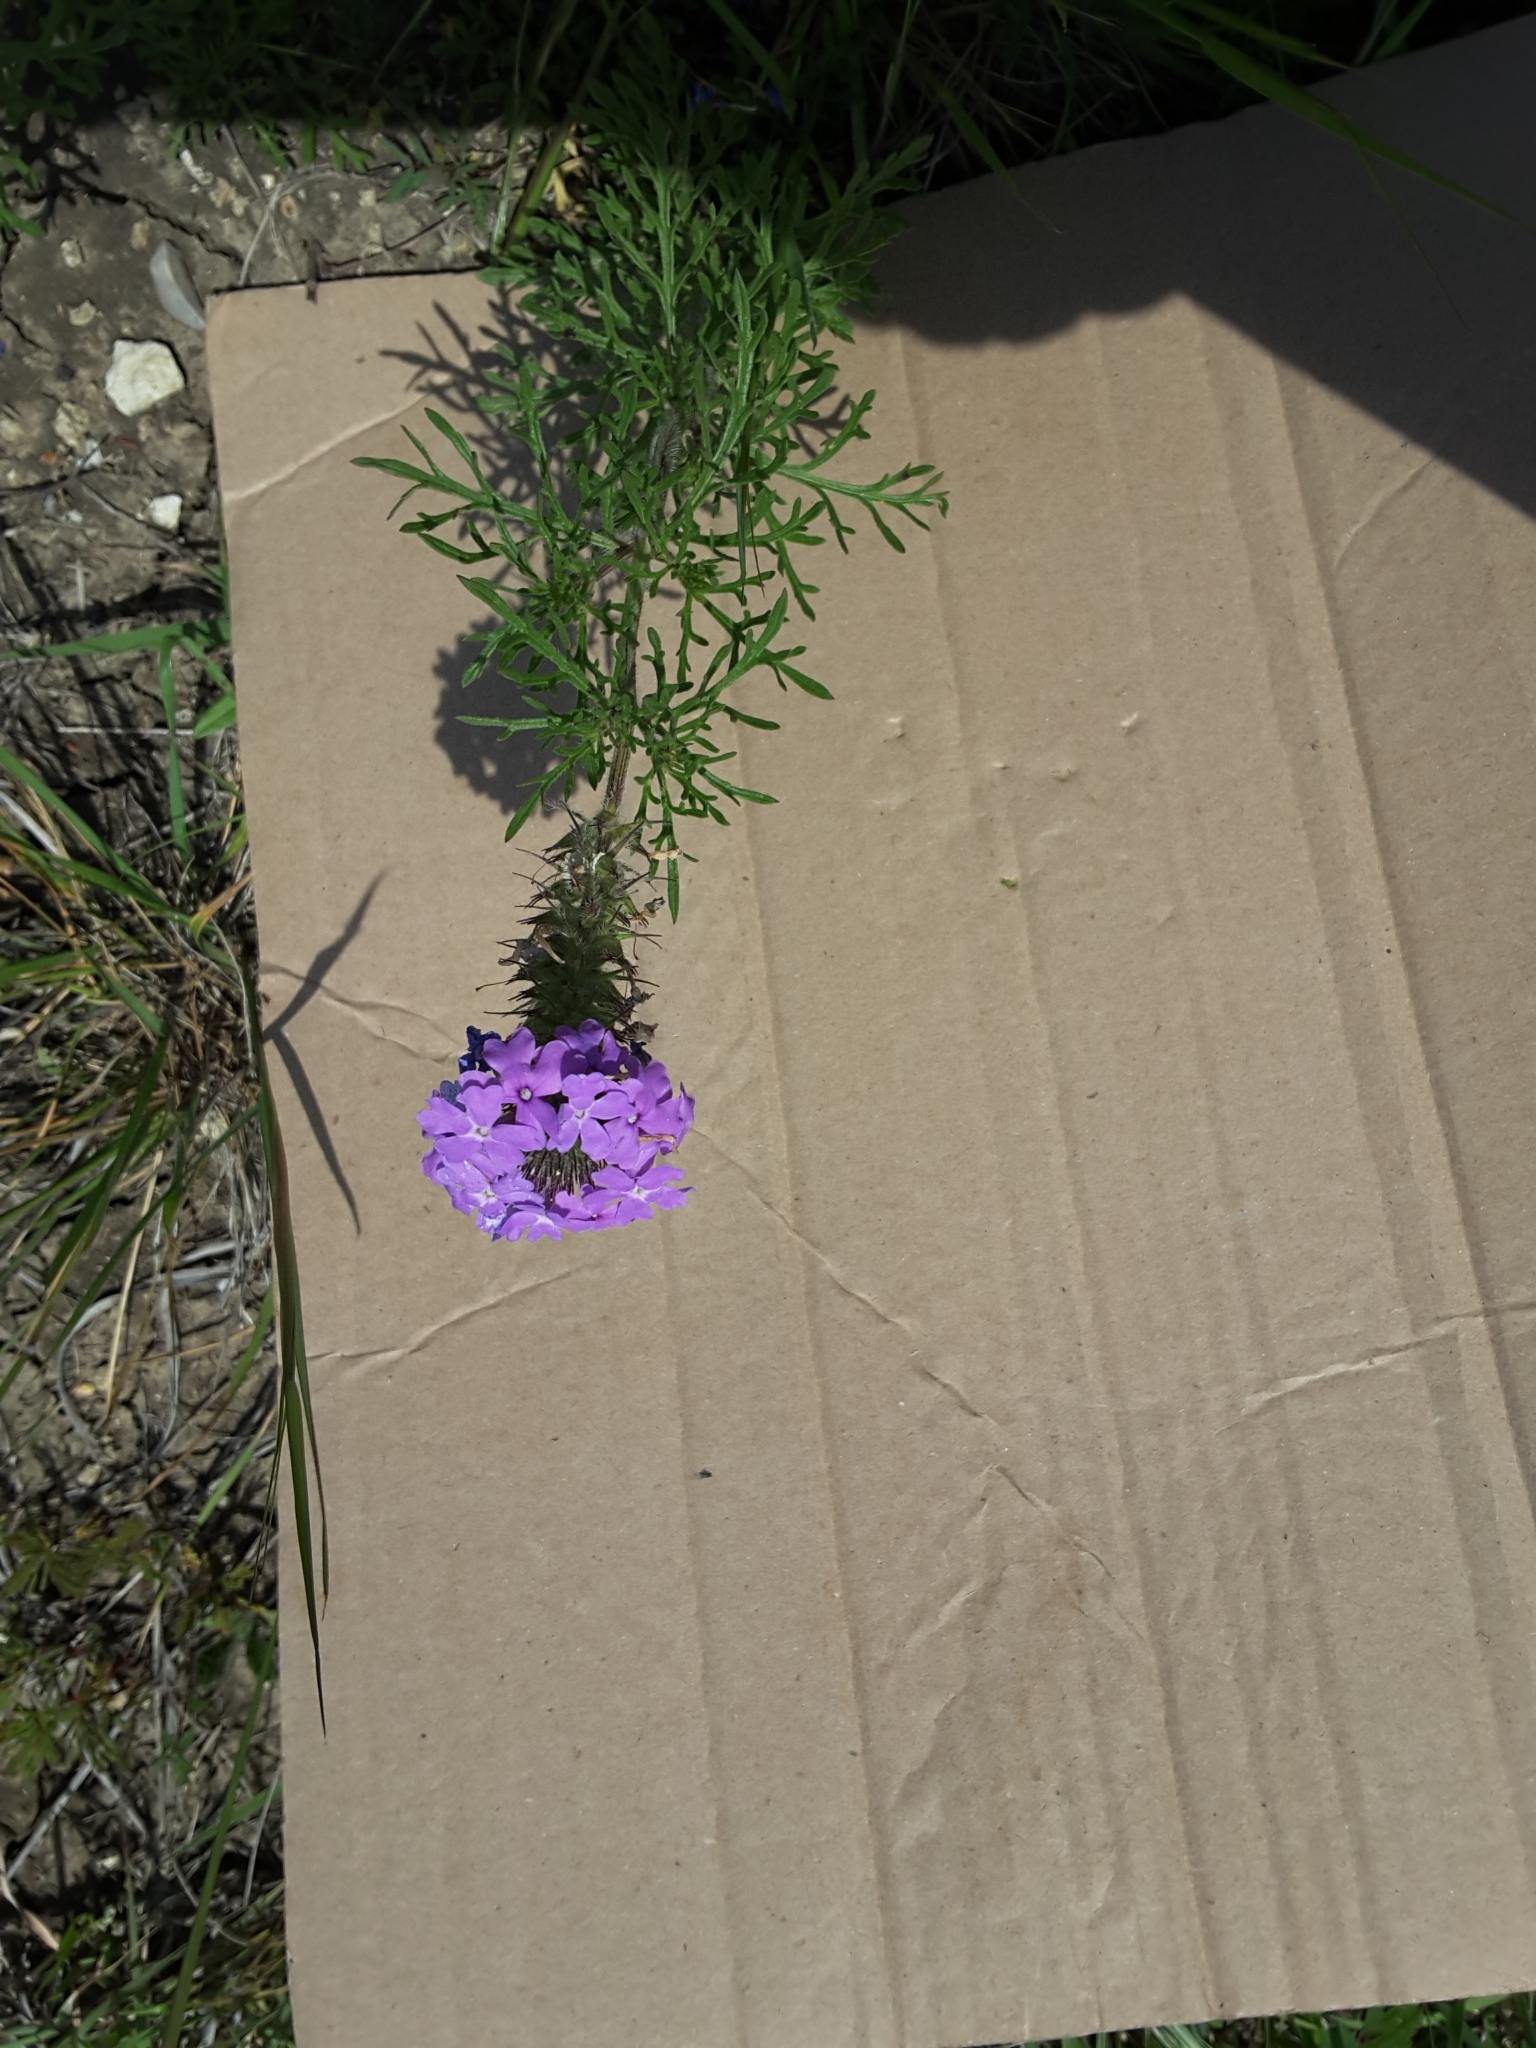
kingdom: Plantae
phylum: Tracheophyta
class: Magnoliopsida
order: Lamiales
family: Verbenaceae
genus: Verbena
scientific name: Verbena bipinnatifida
